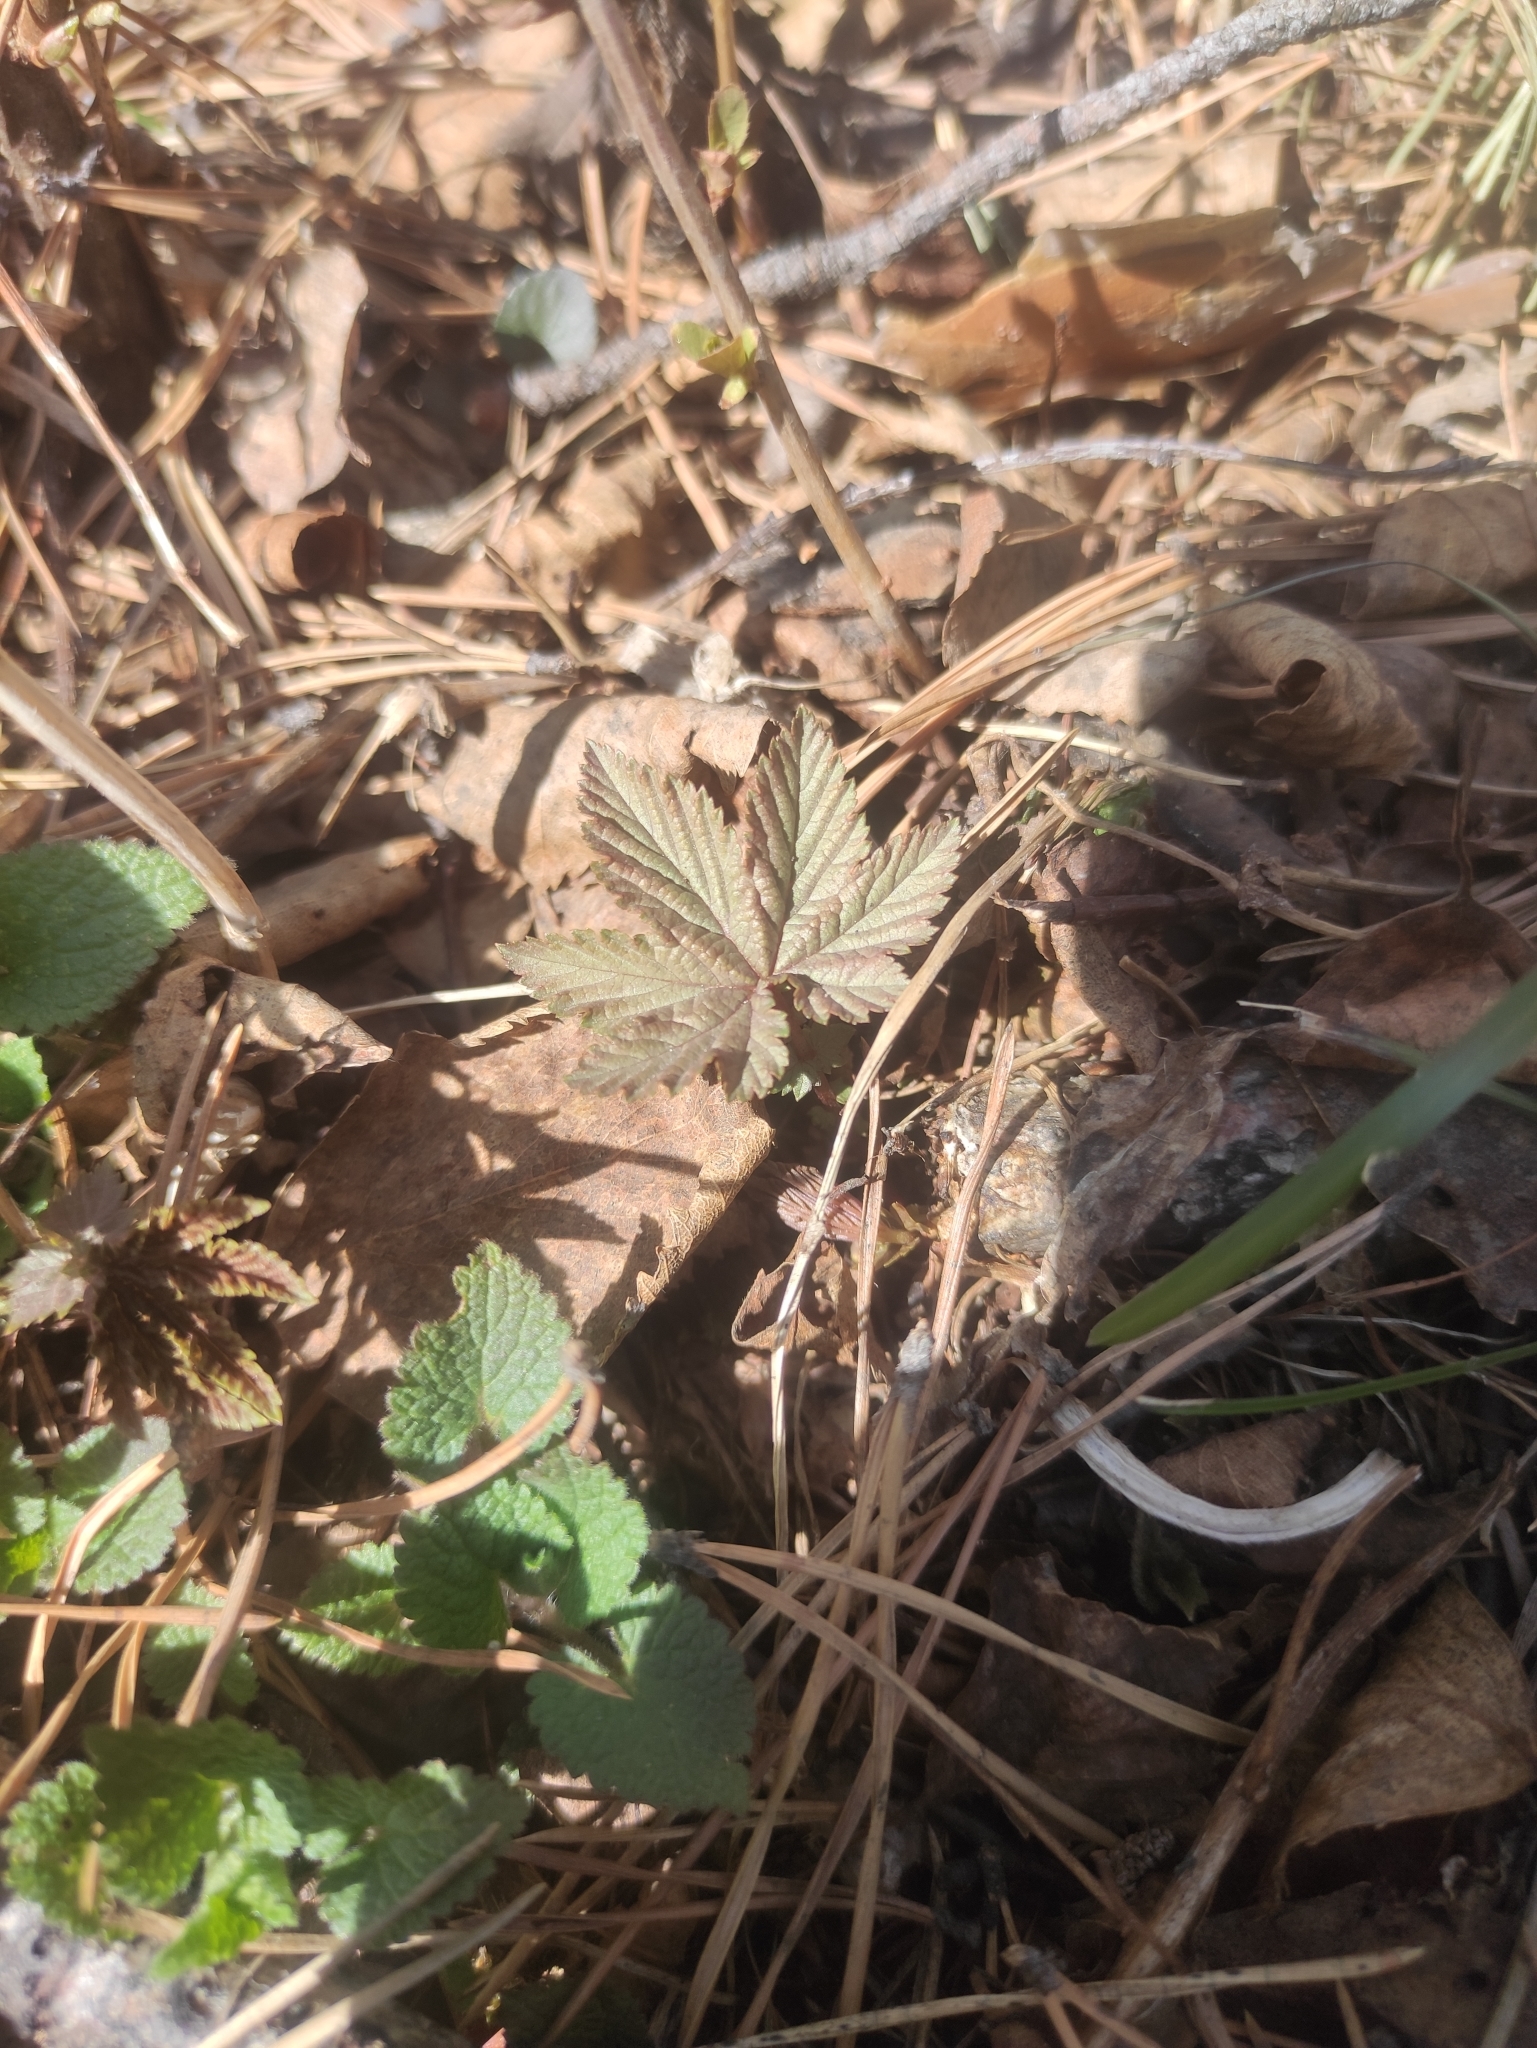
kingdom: Plantae
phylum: Tracheophyta
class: Magnoliopsida
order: Rosales
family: Rosaceae
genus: Filipendula
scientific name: Filipendula digitata
